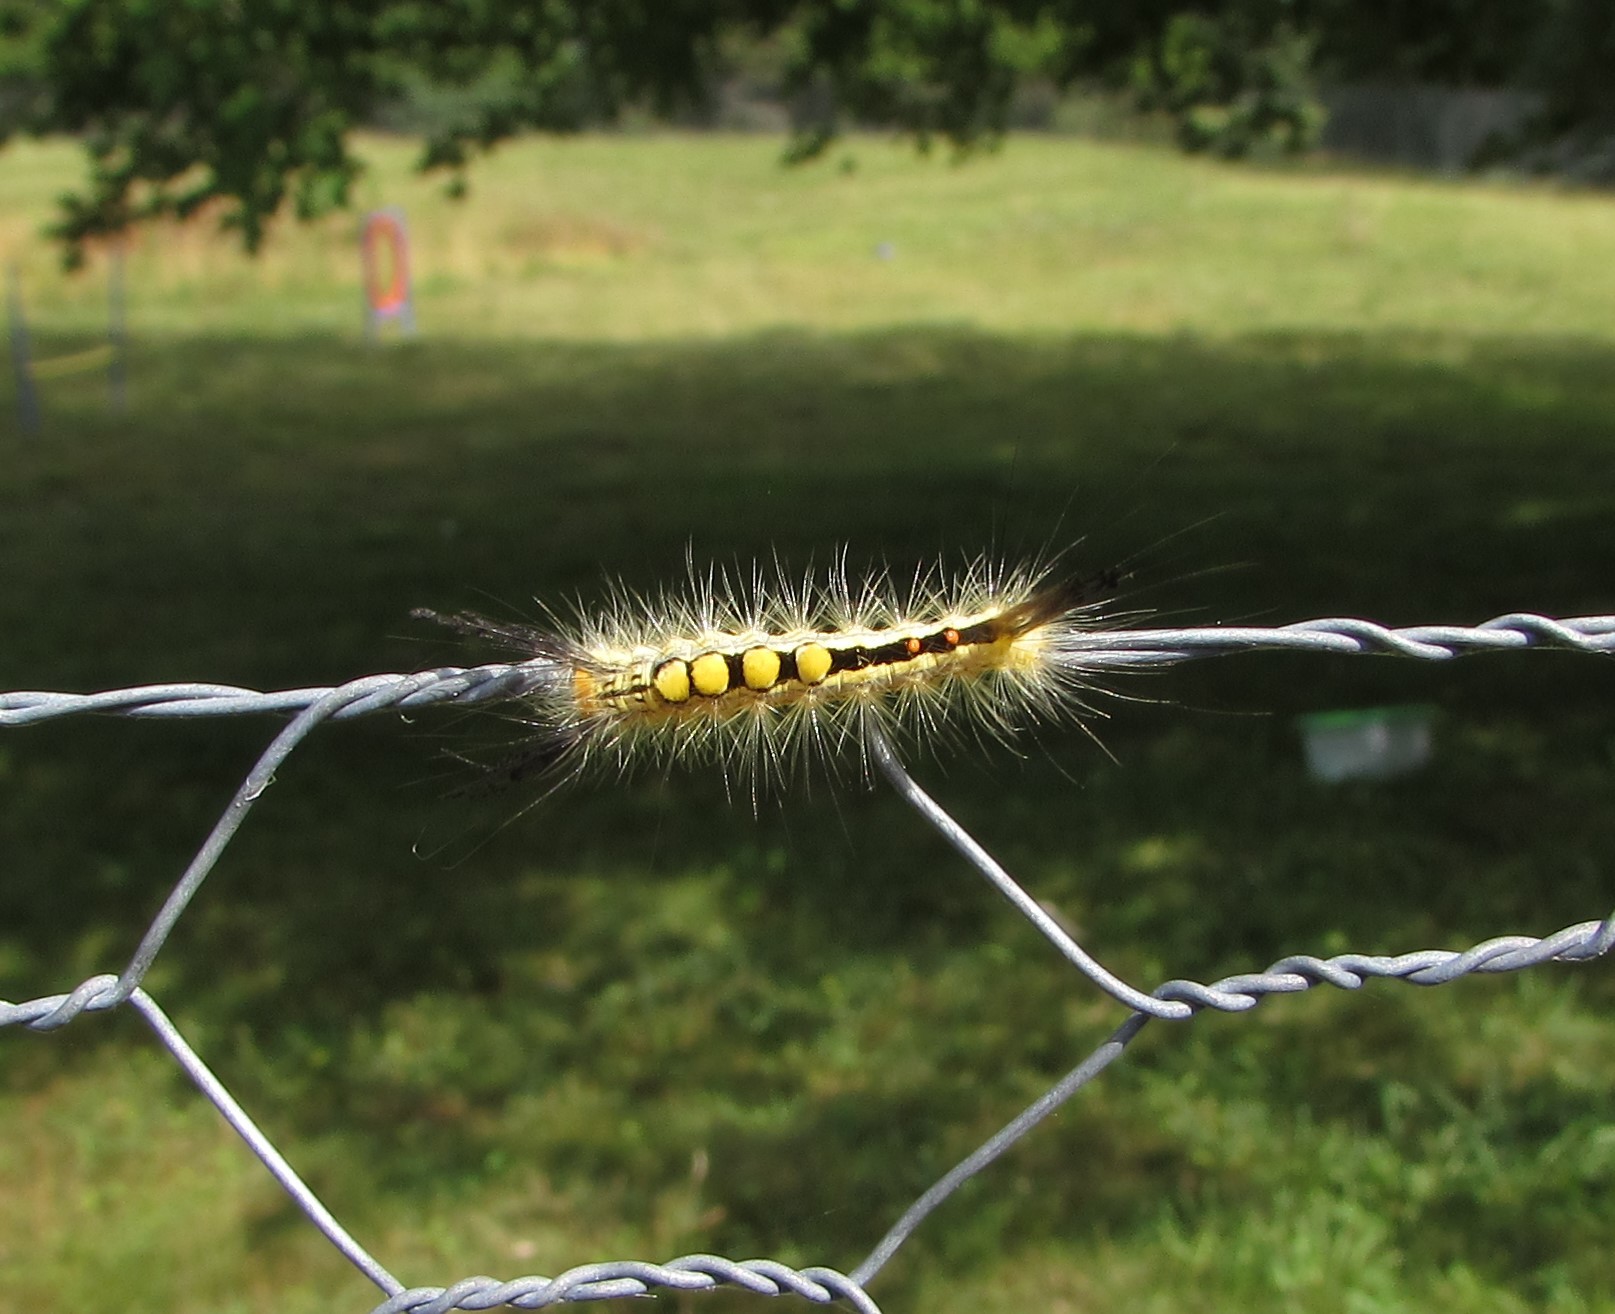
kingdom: Animalia
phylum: Arthropoda
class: Insecta
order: Lepidoptera
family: Erebidae
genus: Orgyia
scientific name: Orgyia leucostigma
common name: White-marked tussock moth
